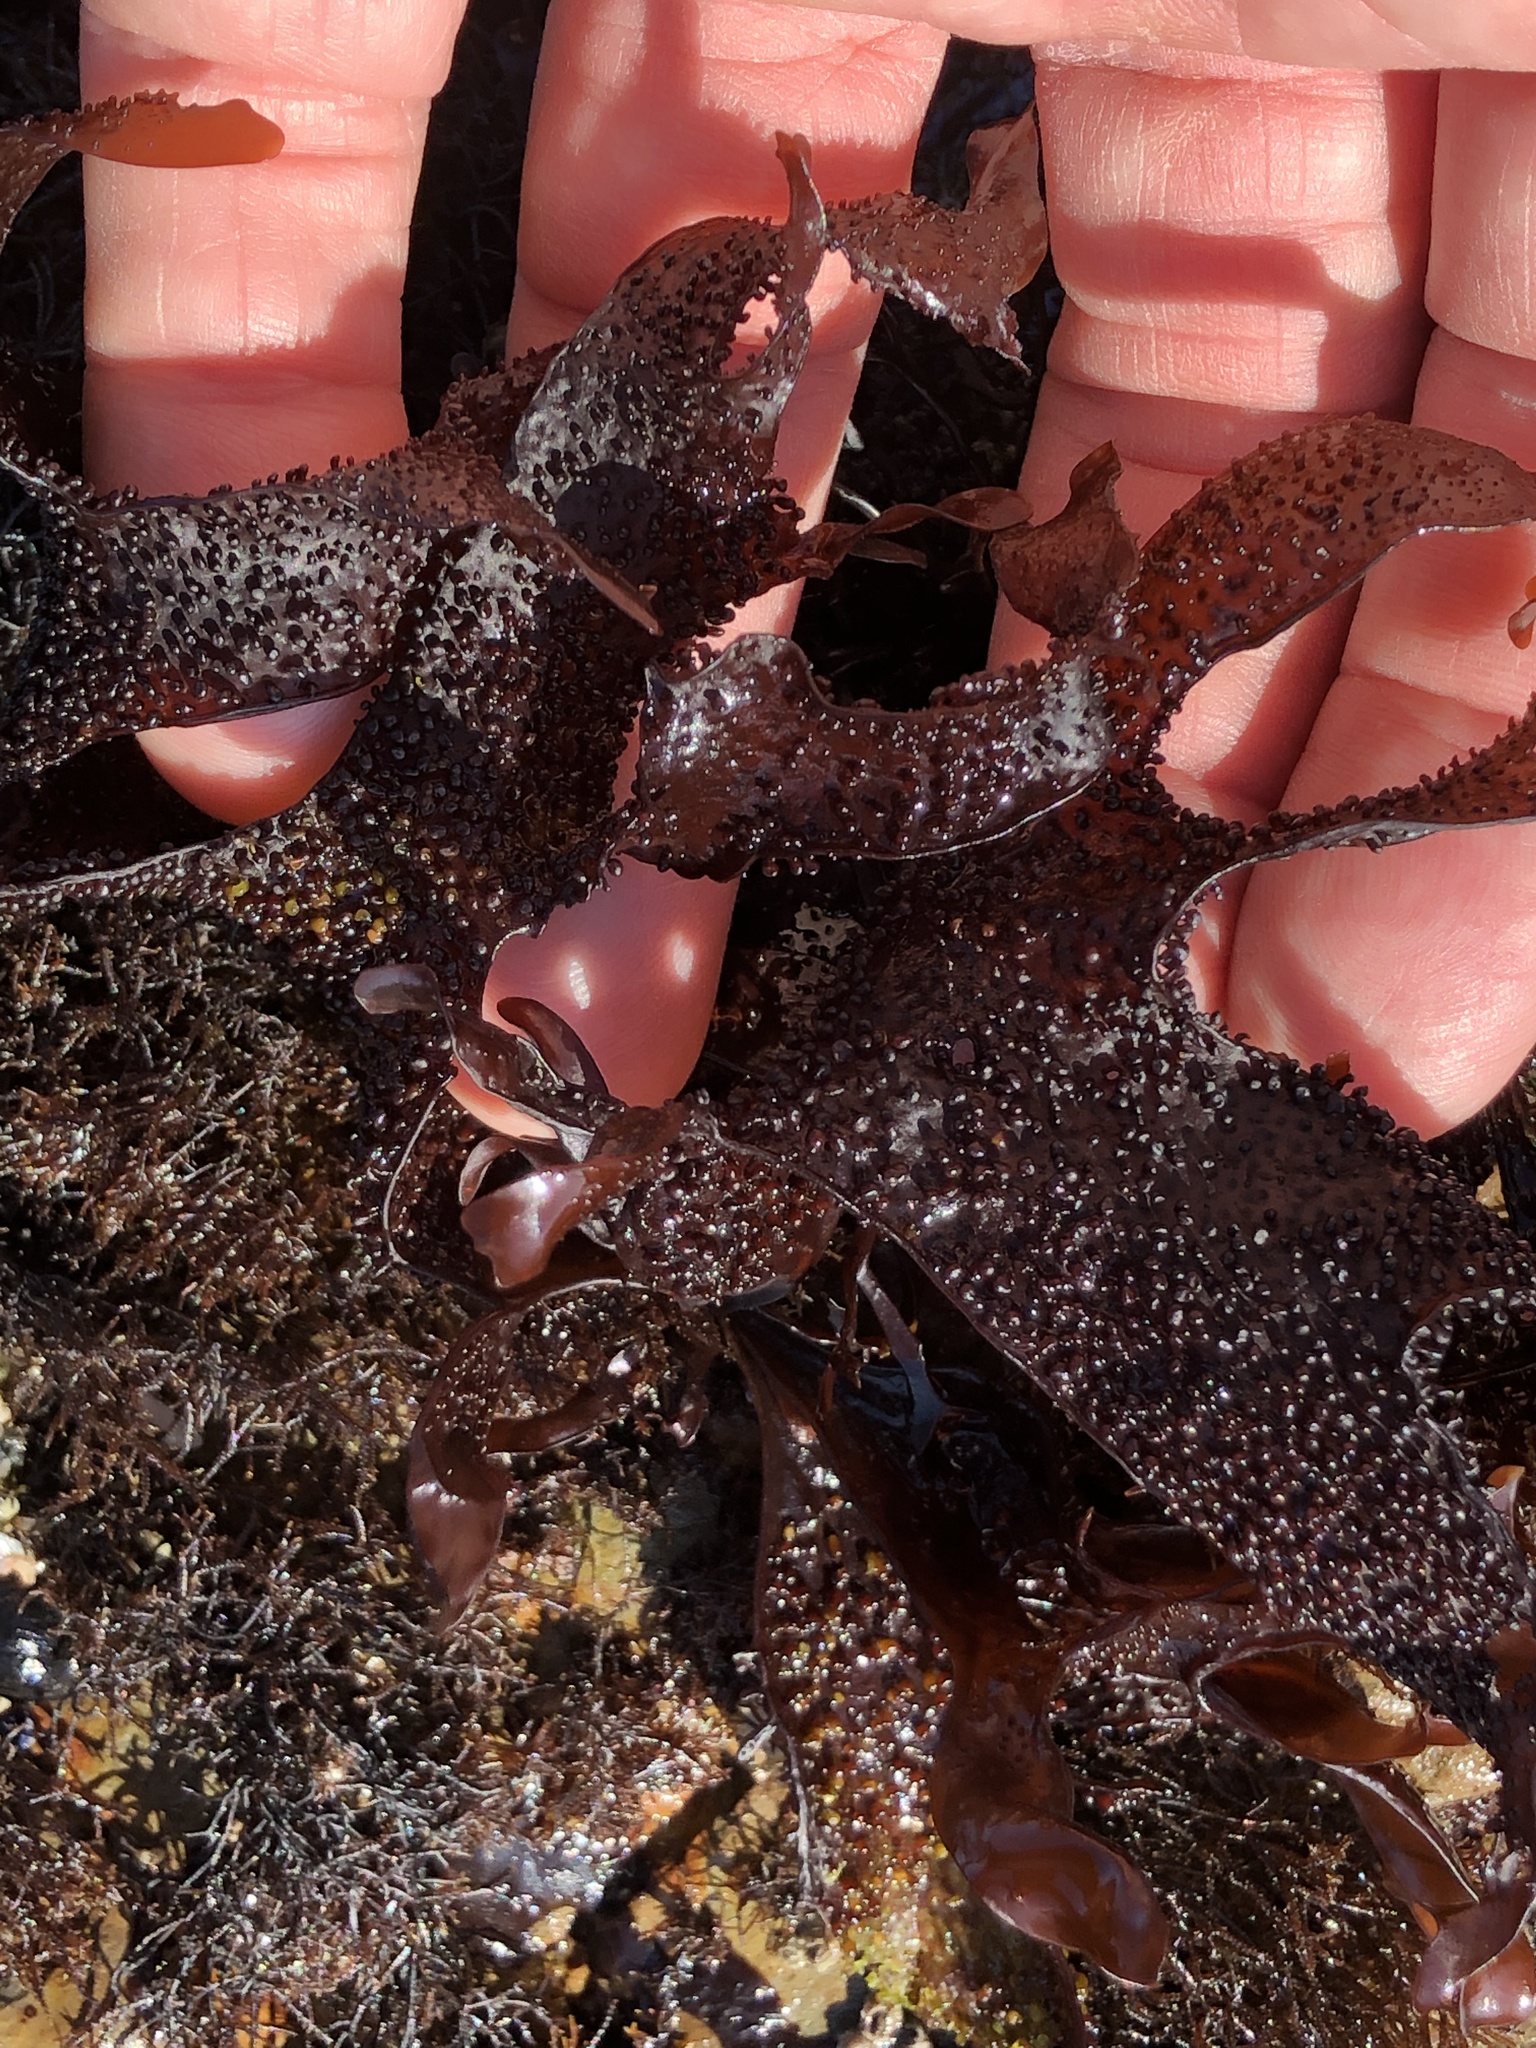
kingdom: Plantae
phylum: Rhodophyta
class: Florideophyceae
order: Gigartinales
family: Phyllophoraceae
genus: Mastocarpus
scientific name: Mastocarpus papillatus
